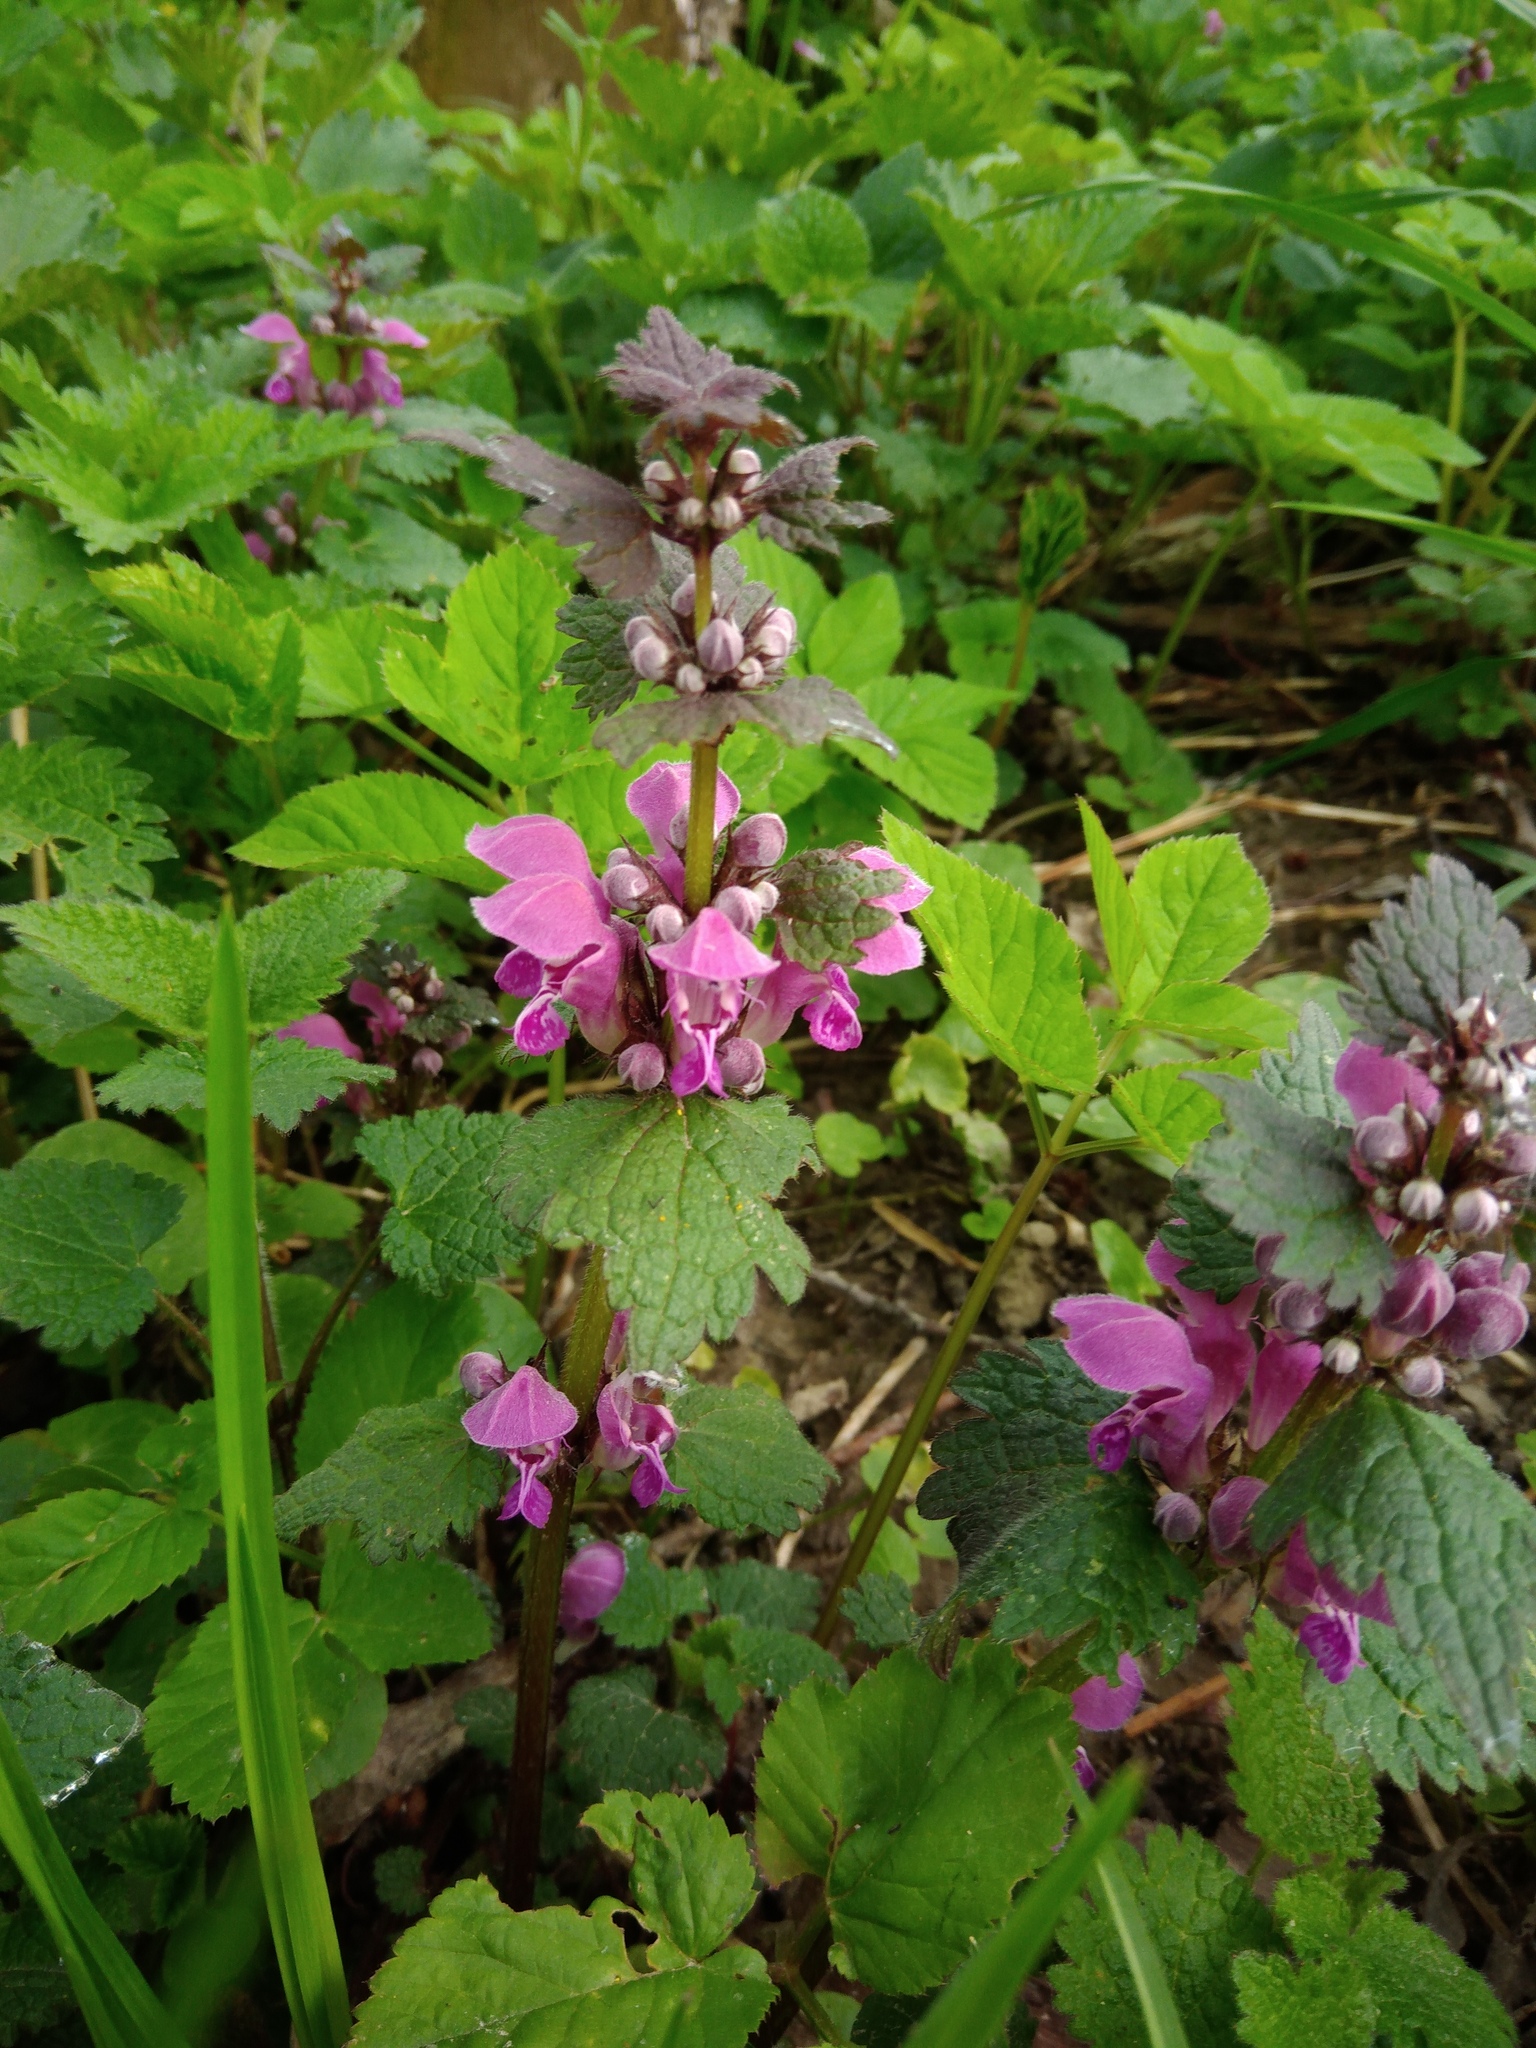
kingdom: Plantae
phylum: Tracheophyta
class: Magnoliopsida
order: Lamiales
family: Lamiaceae
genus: Lamium
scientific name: Lamium maculatum
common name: Spotted dead-nettle
